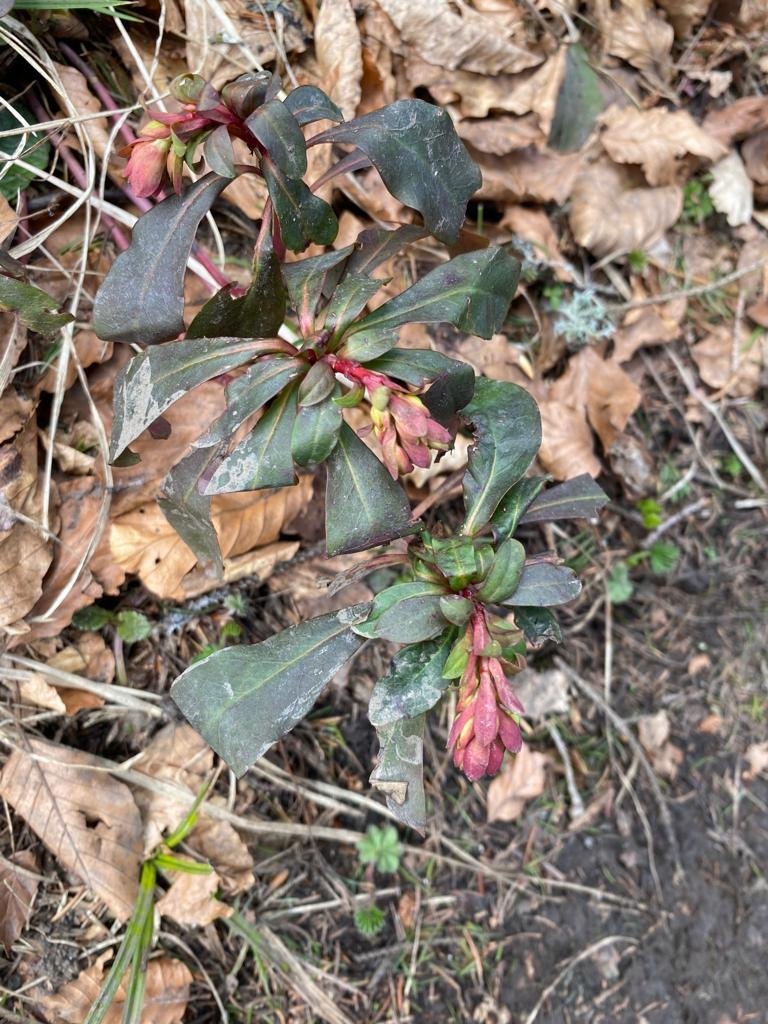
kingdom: Plantae
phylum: Tracheophyta
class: Magnoliopsida
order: Malpighiales
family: Euphorbiaceae
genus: Euphorbia
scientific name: Euphorbia amygdaloides
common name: Wood spurge
